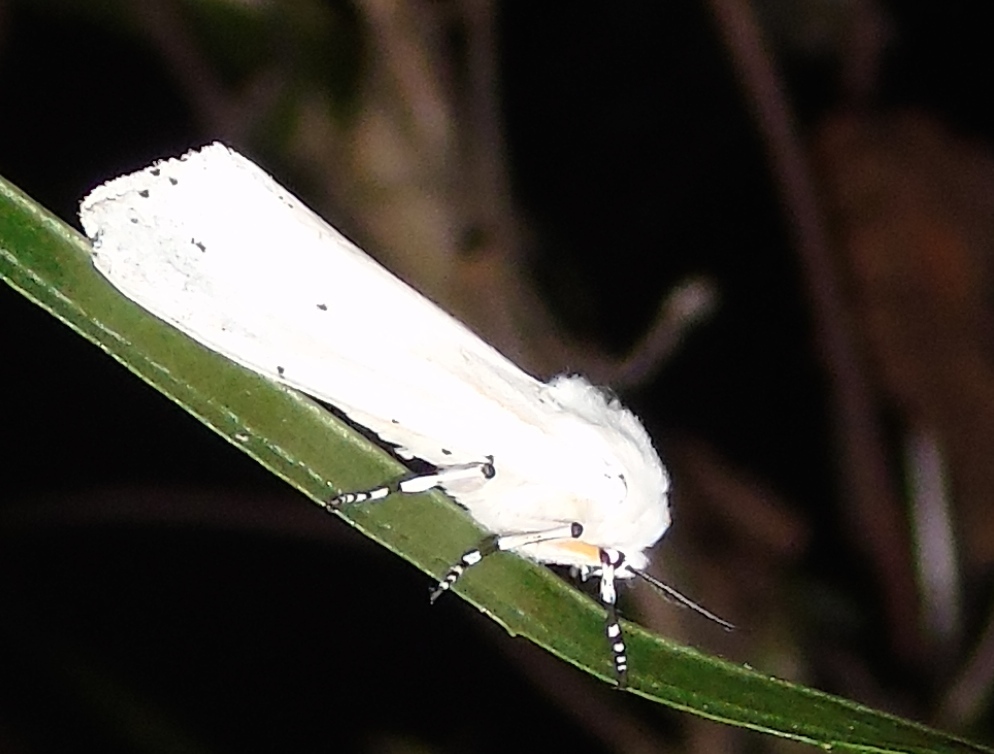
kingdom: Animalia
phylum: Arthropoda
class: Insecta
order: Lepidoptera
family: Erebidae
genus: Estigmene
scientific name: Estigmene
